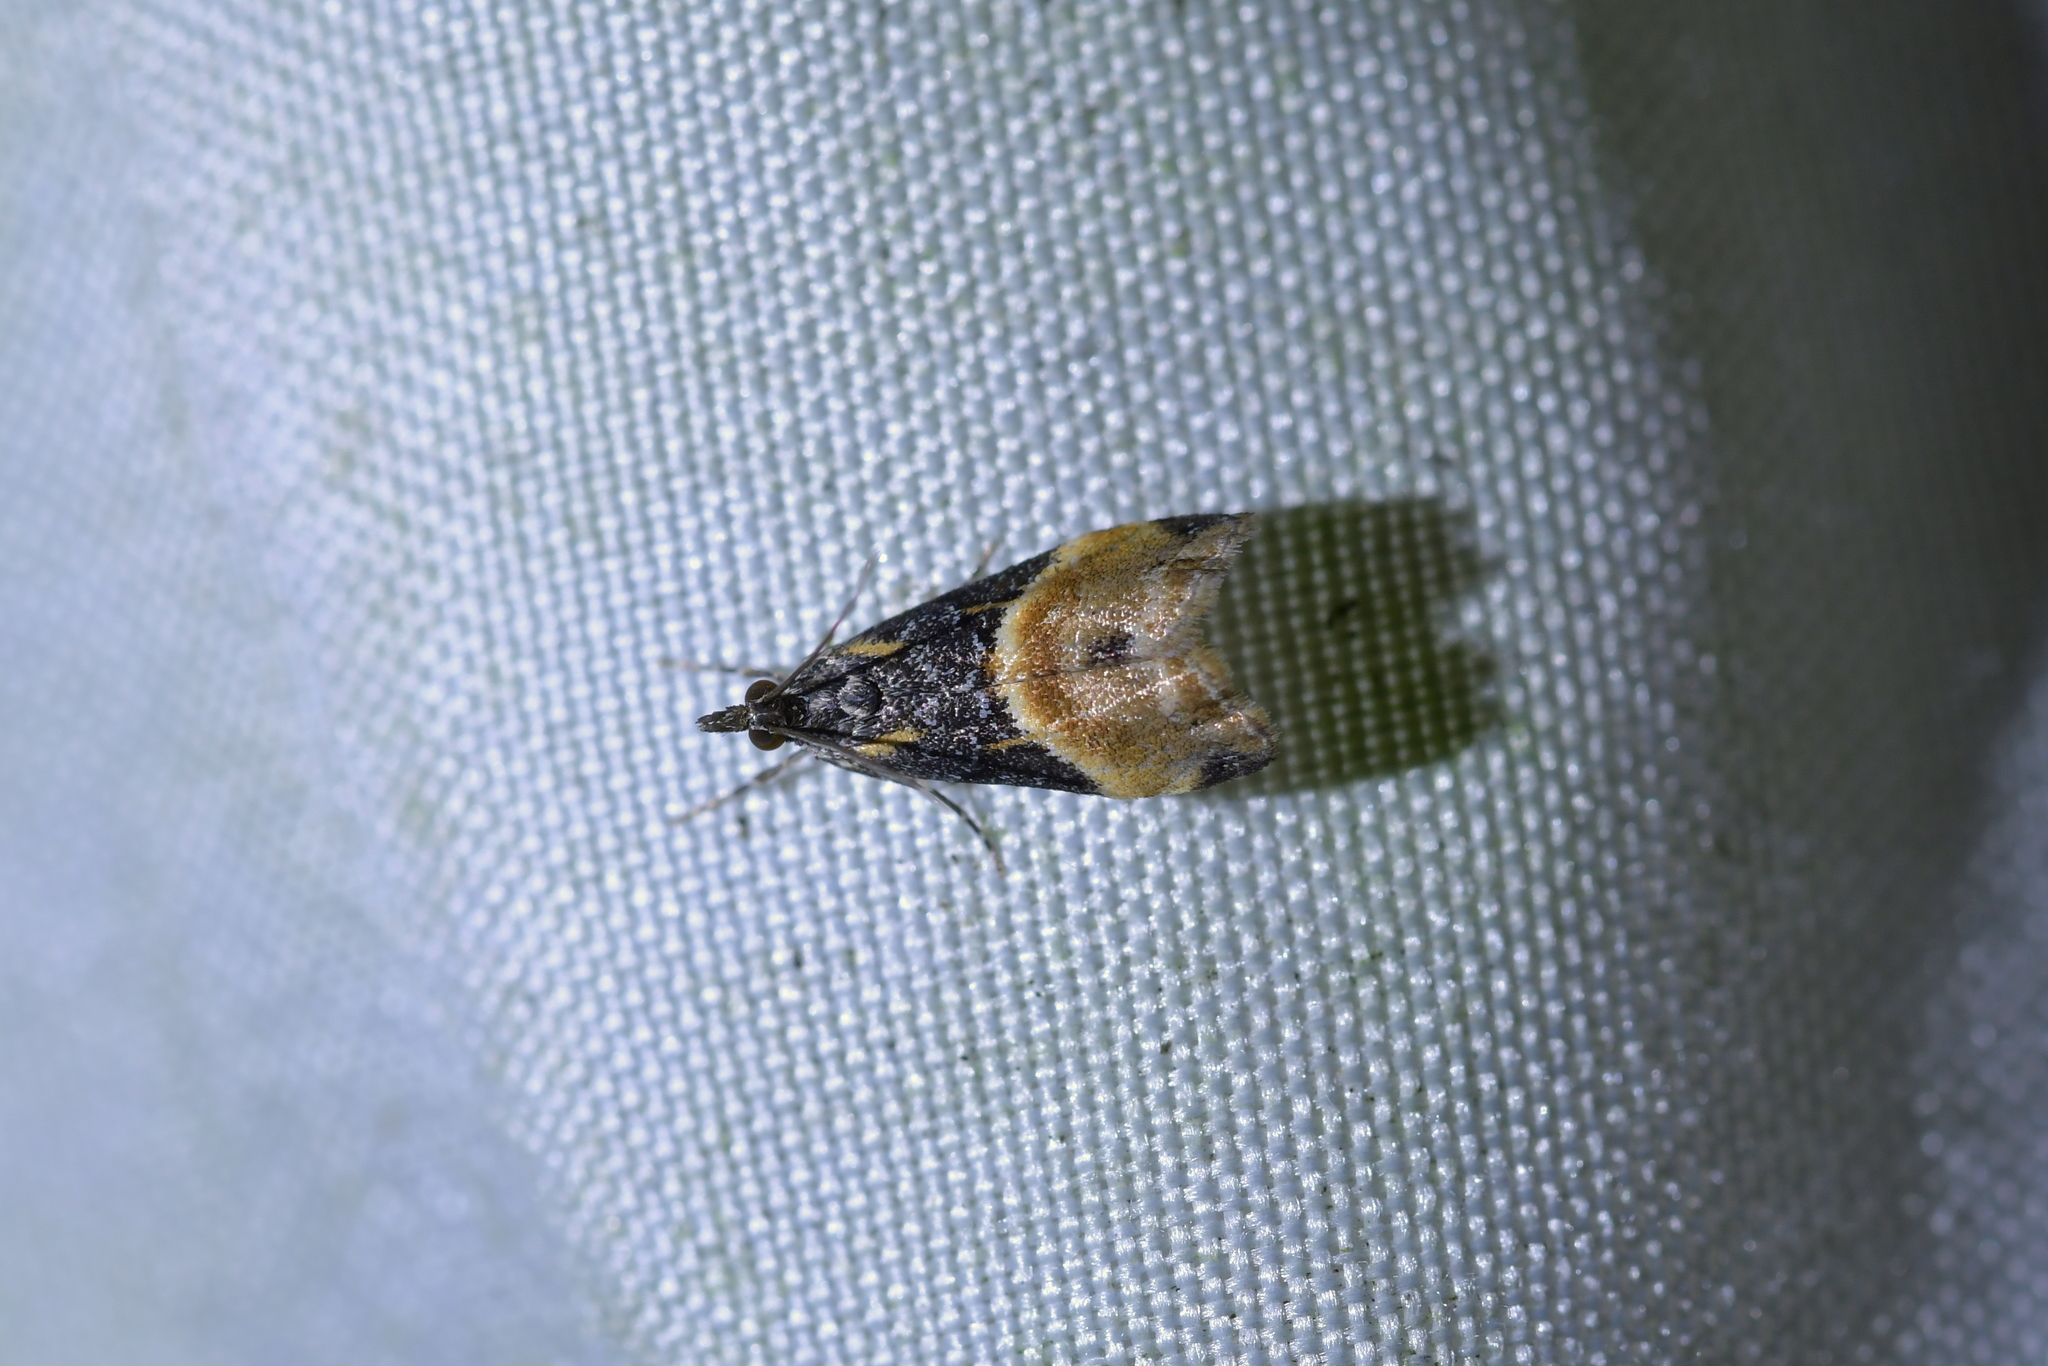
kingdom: Animalia
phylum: Arthropoda
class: Insecta
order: Lepidoptera
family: Crambidae
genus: Eudonia
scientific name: Eudonia chlamydota
